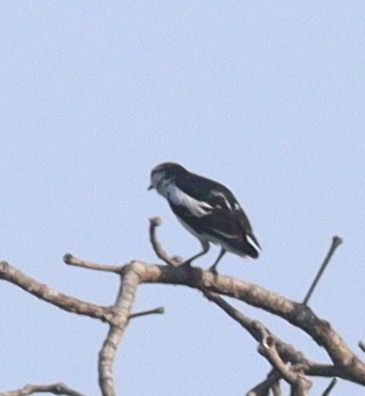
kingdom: Animalia
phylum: Chordata
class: Aves
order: Passeriformes
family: Campephagidae
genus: Lalage
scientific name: Lalage sueurii
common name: White-shouldered triller
